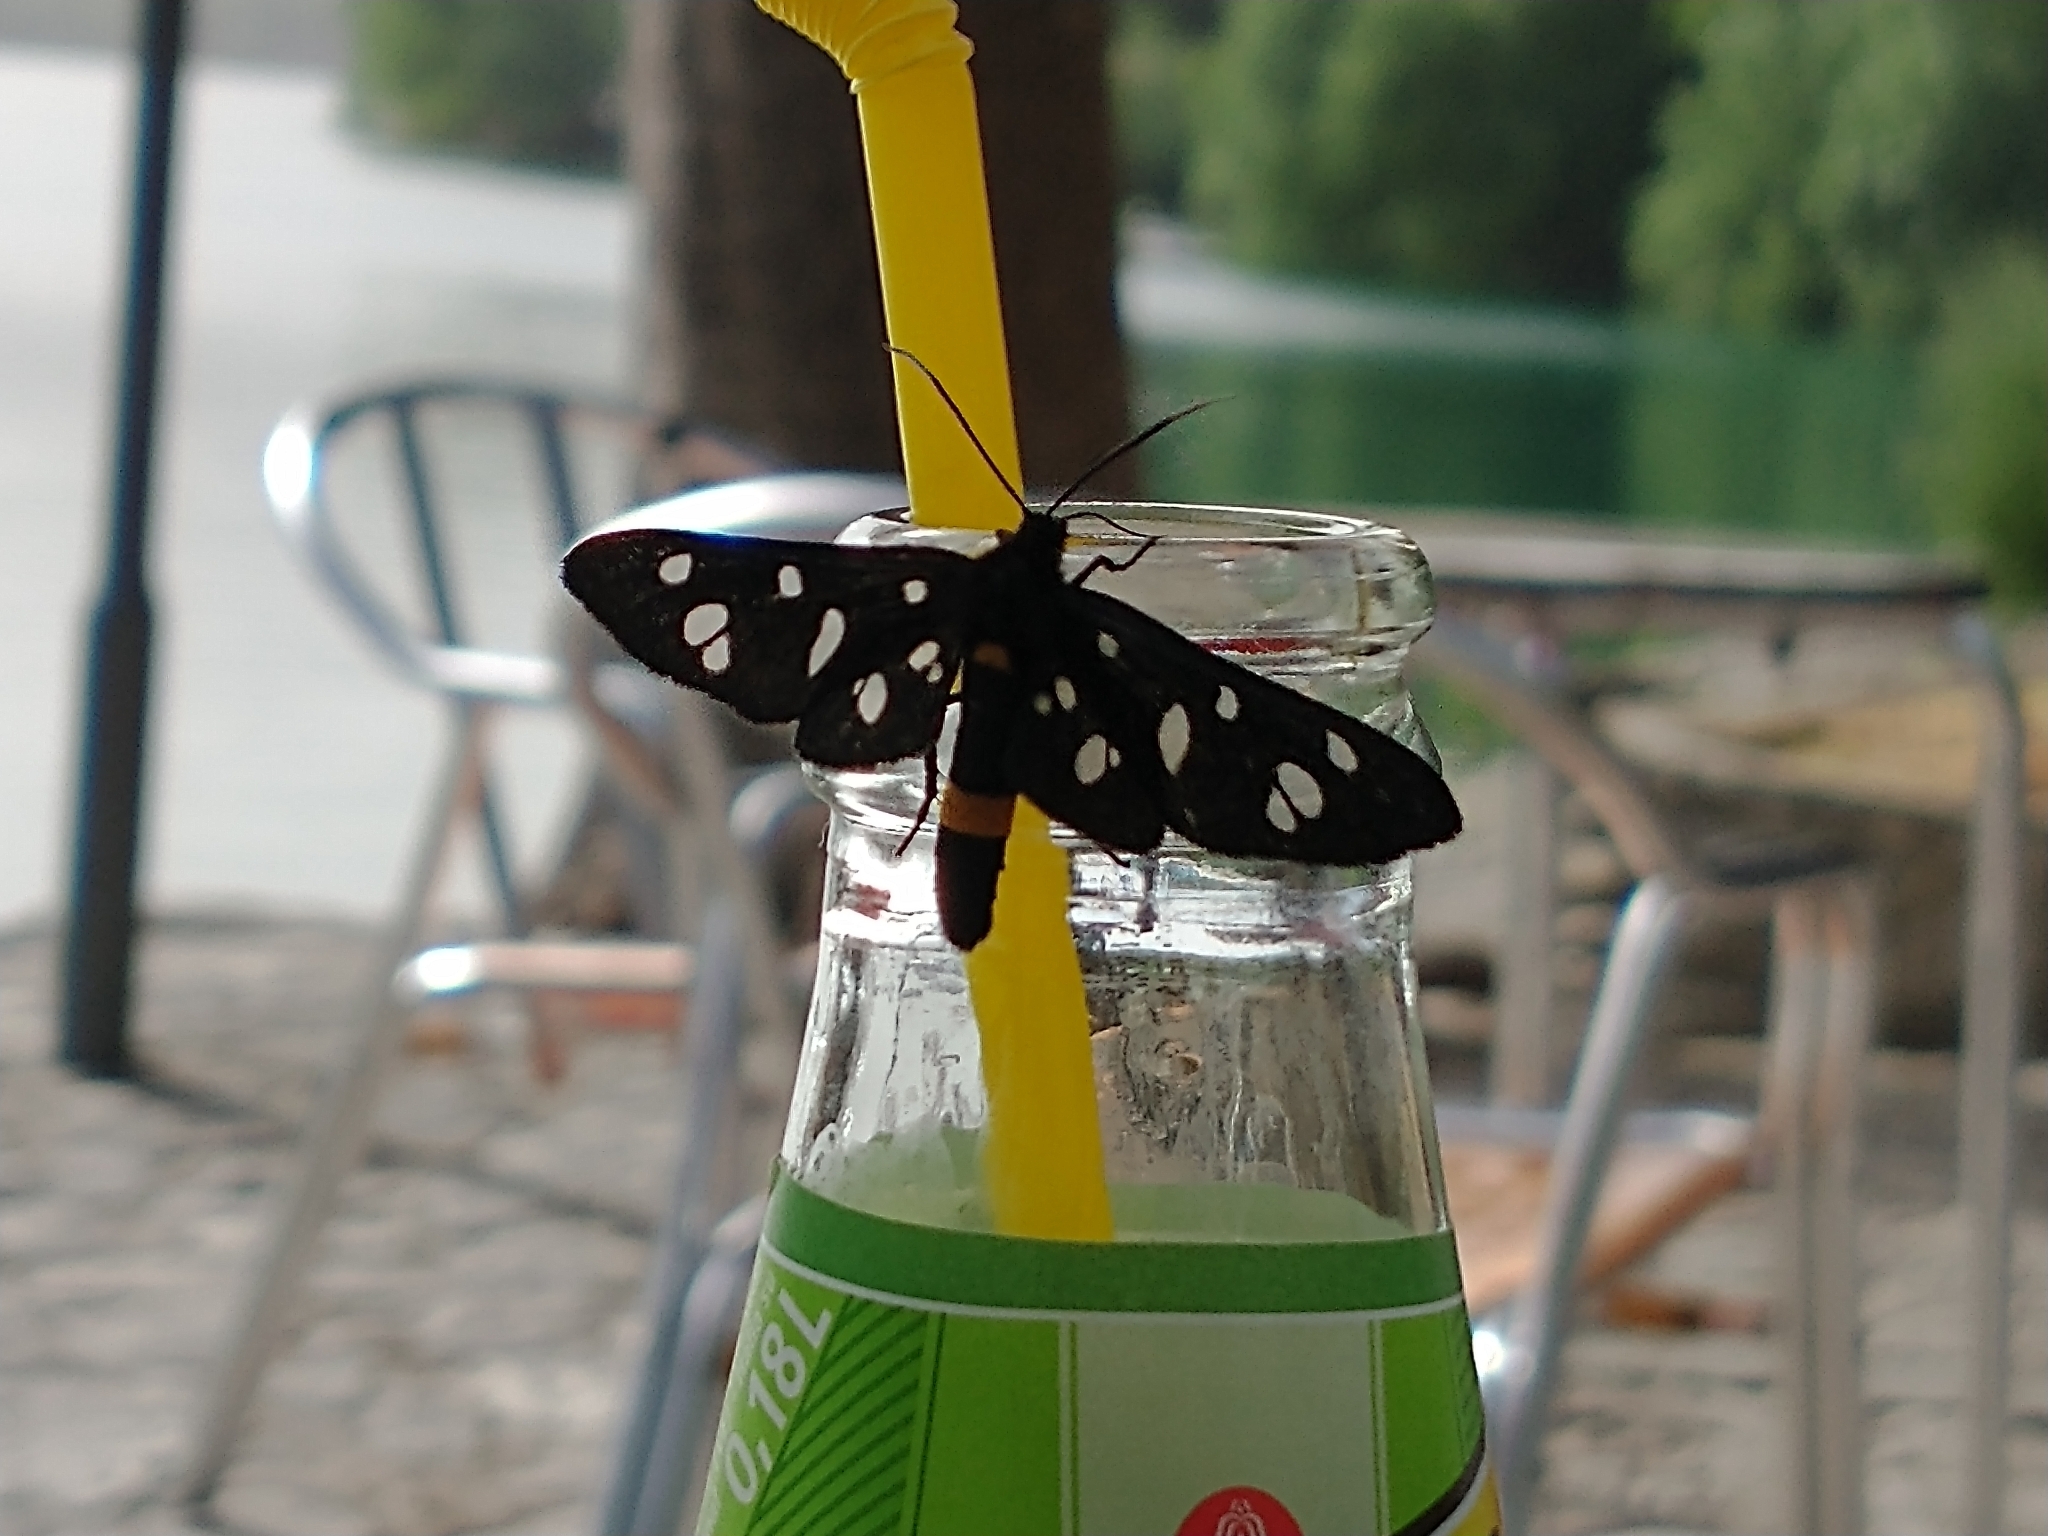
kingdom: Animalia
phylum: Arthropoda
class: Insecta
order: Lepidoptera
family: Erebidae
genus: Amata
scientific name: Amata phegea
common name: Nine-spotted
